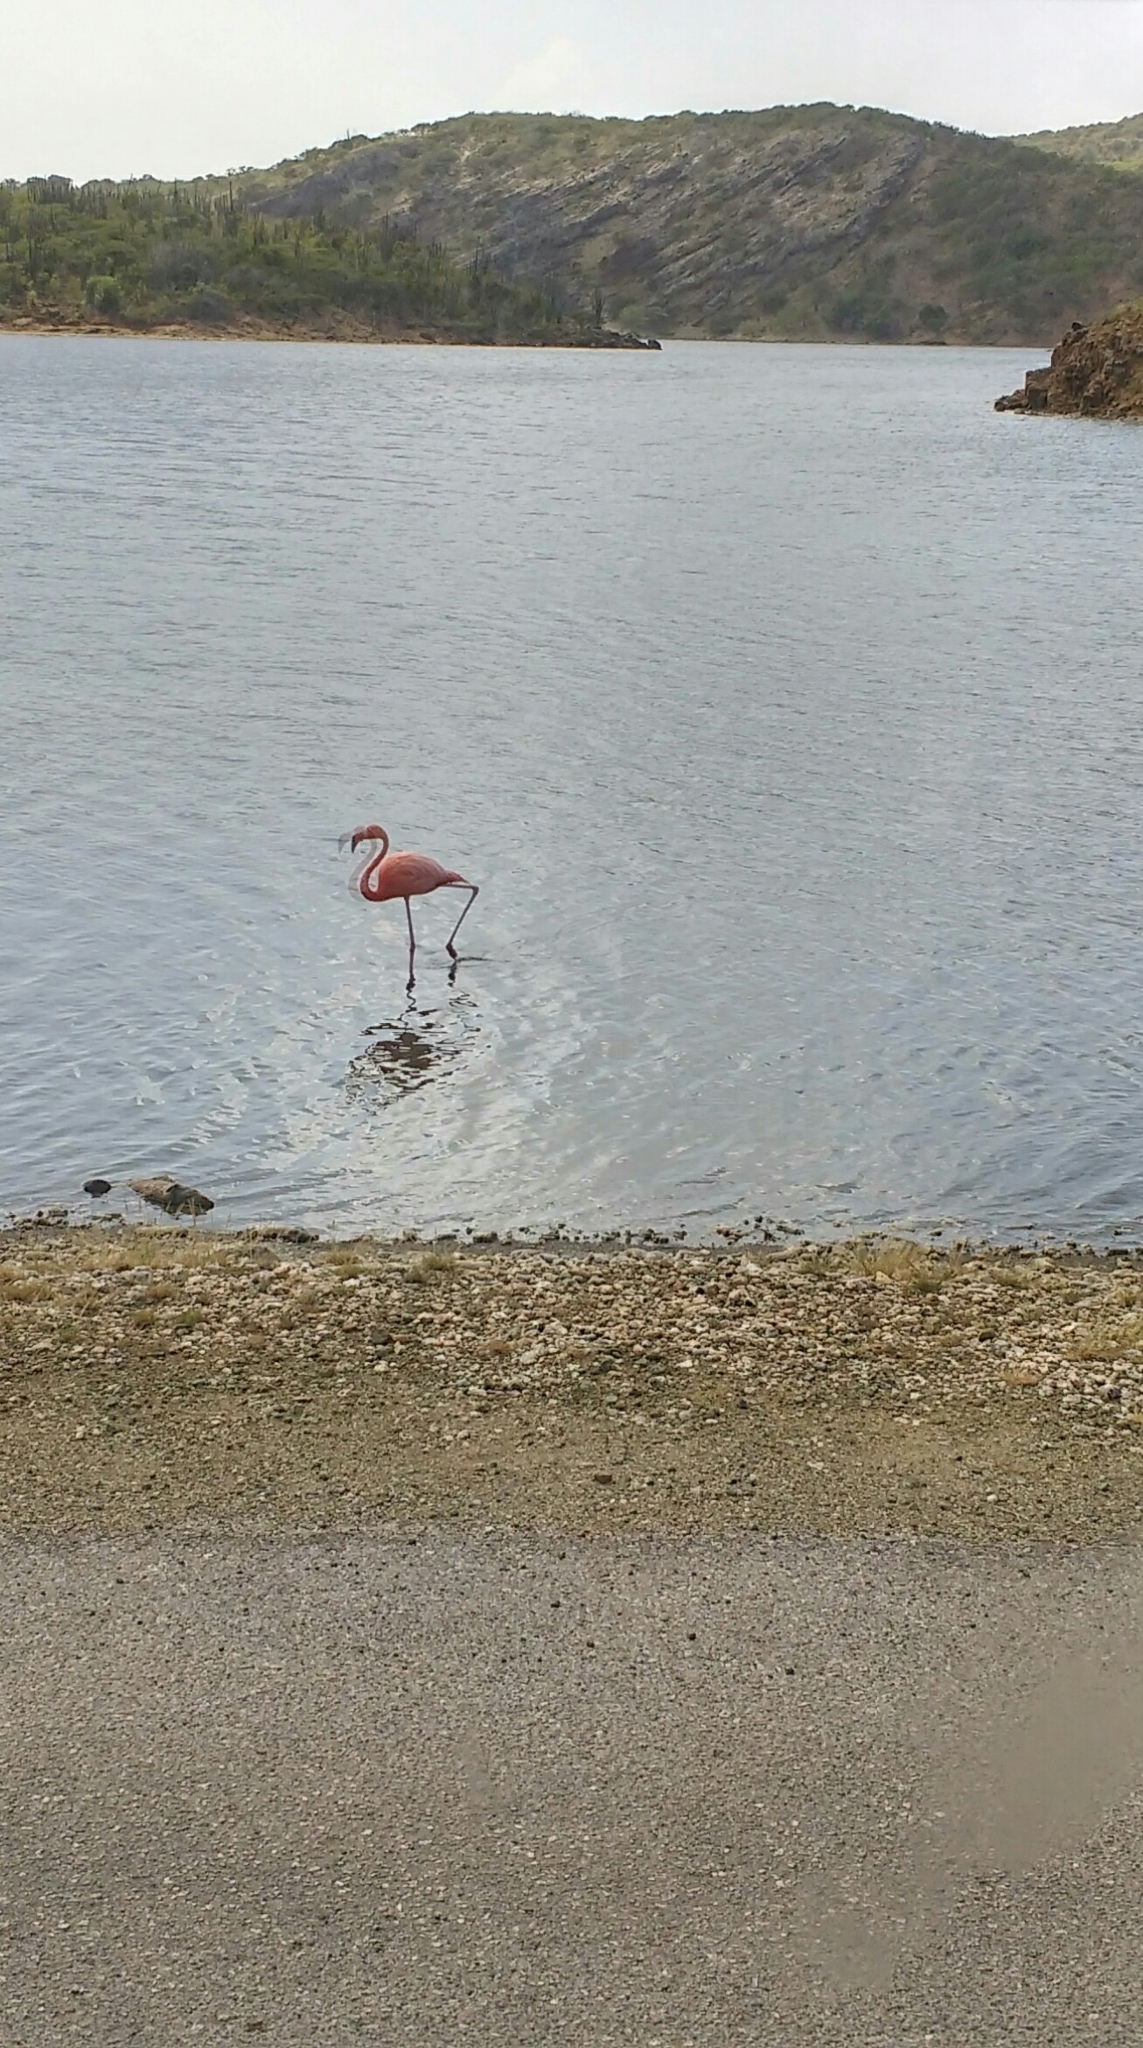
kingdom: Animalia
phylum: Chordata
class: Aves
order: Phoenicopteriformes
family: Phoenicopteridae
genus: Phoenicopterus
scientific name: Phoenicopterus ruber
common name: American flamingo
